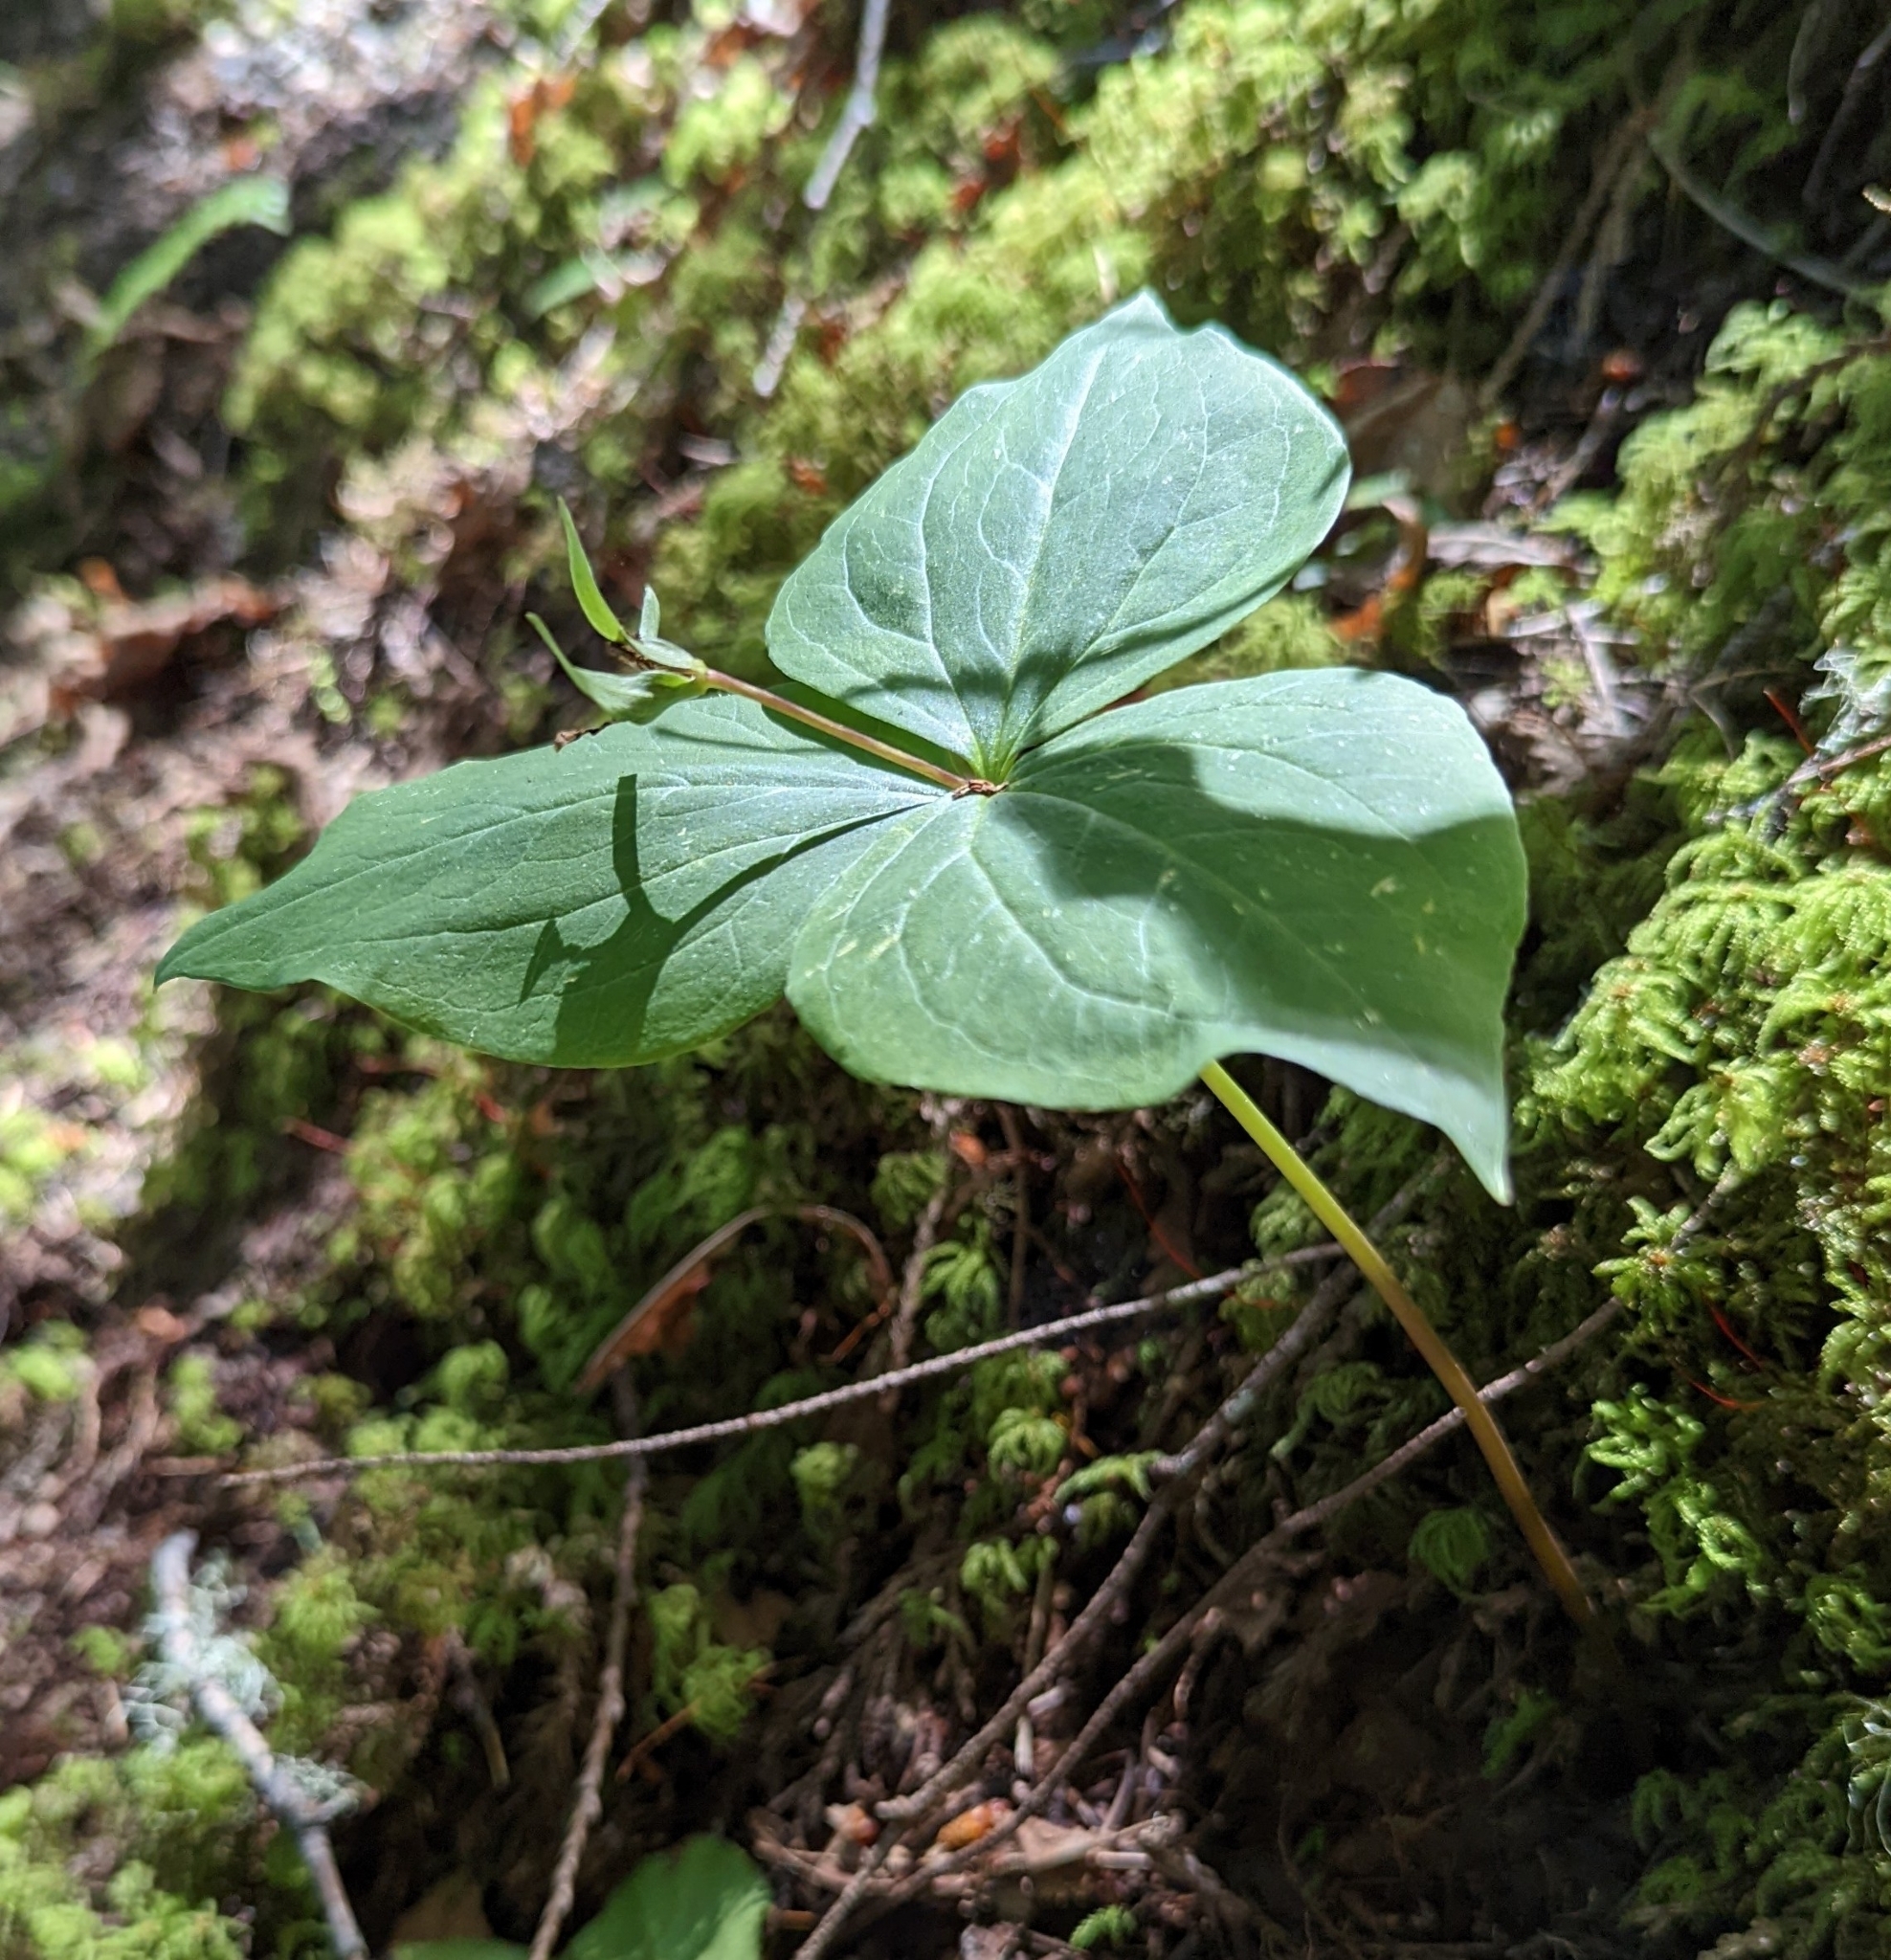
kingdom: Plantae
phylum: Tracheophyta
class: Liliopsida
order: Liliales
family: Melanthiaceae
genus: Trillium
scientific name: Trillium ovatum
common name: Pacific trillium
